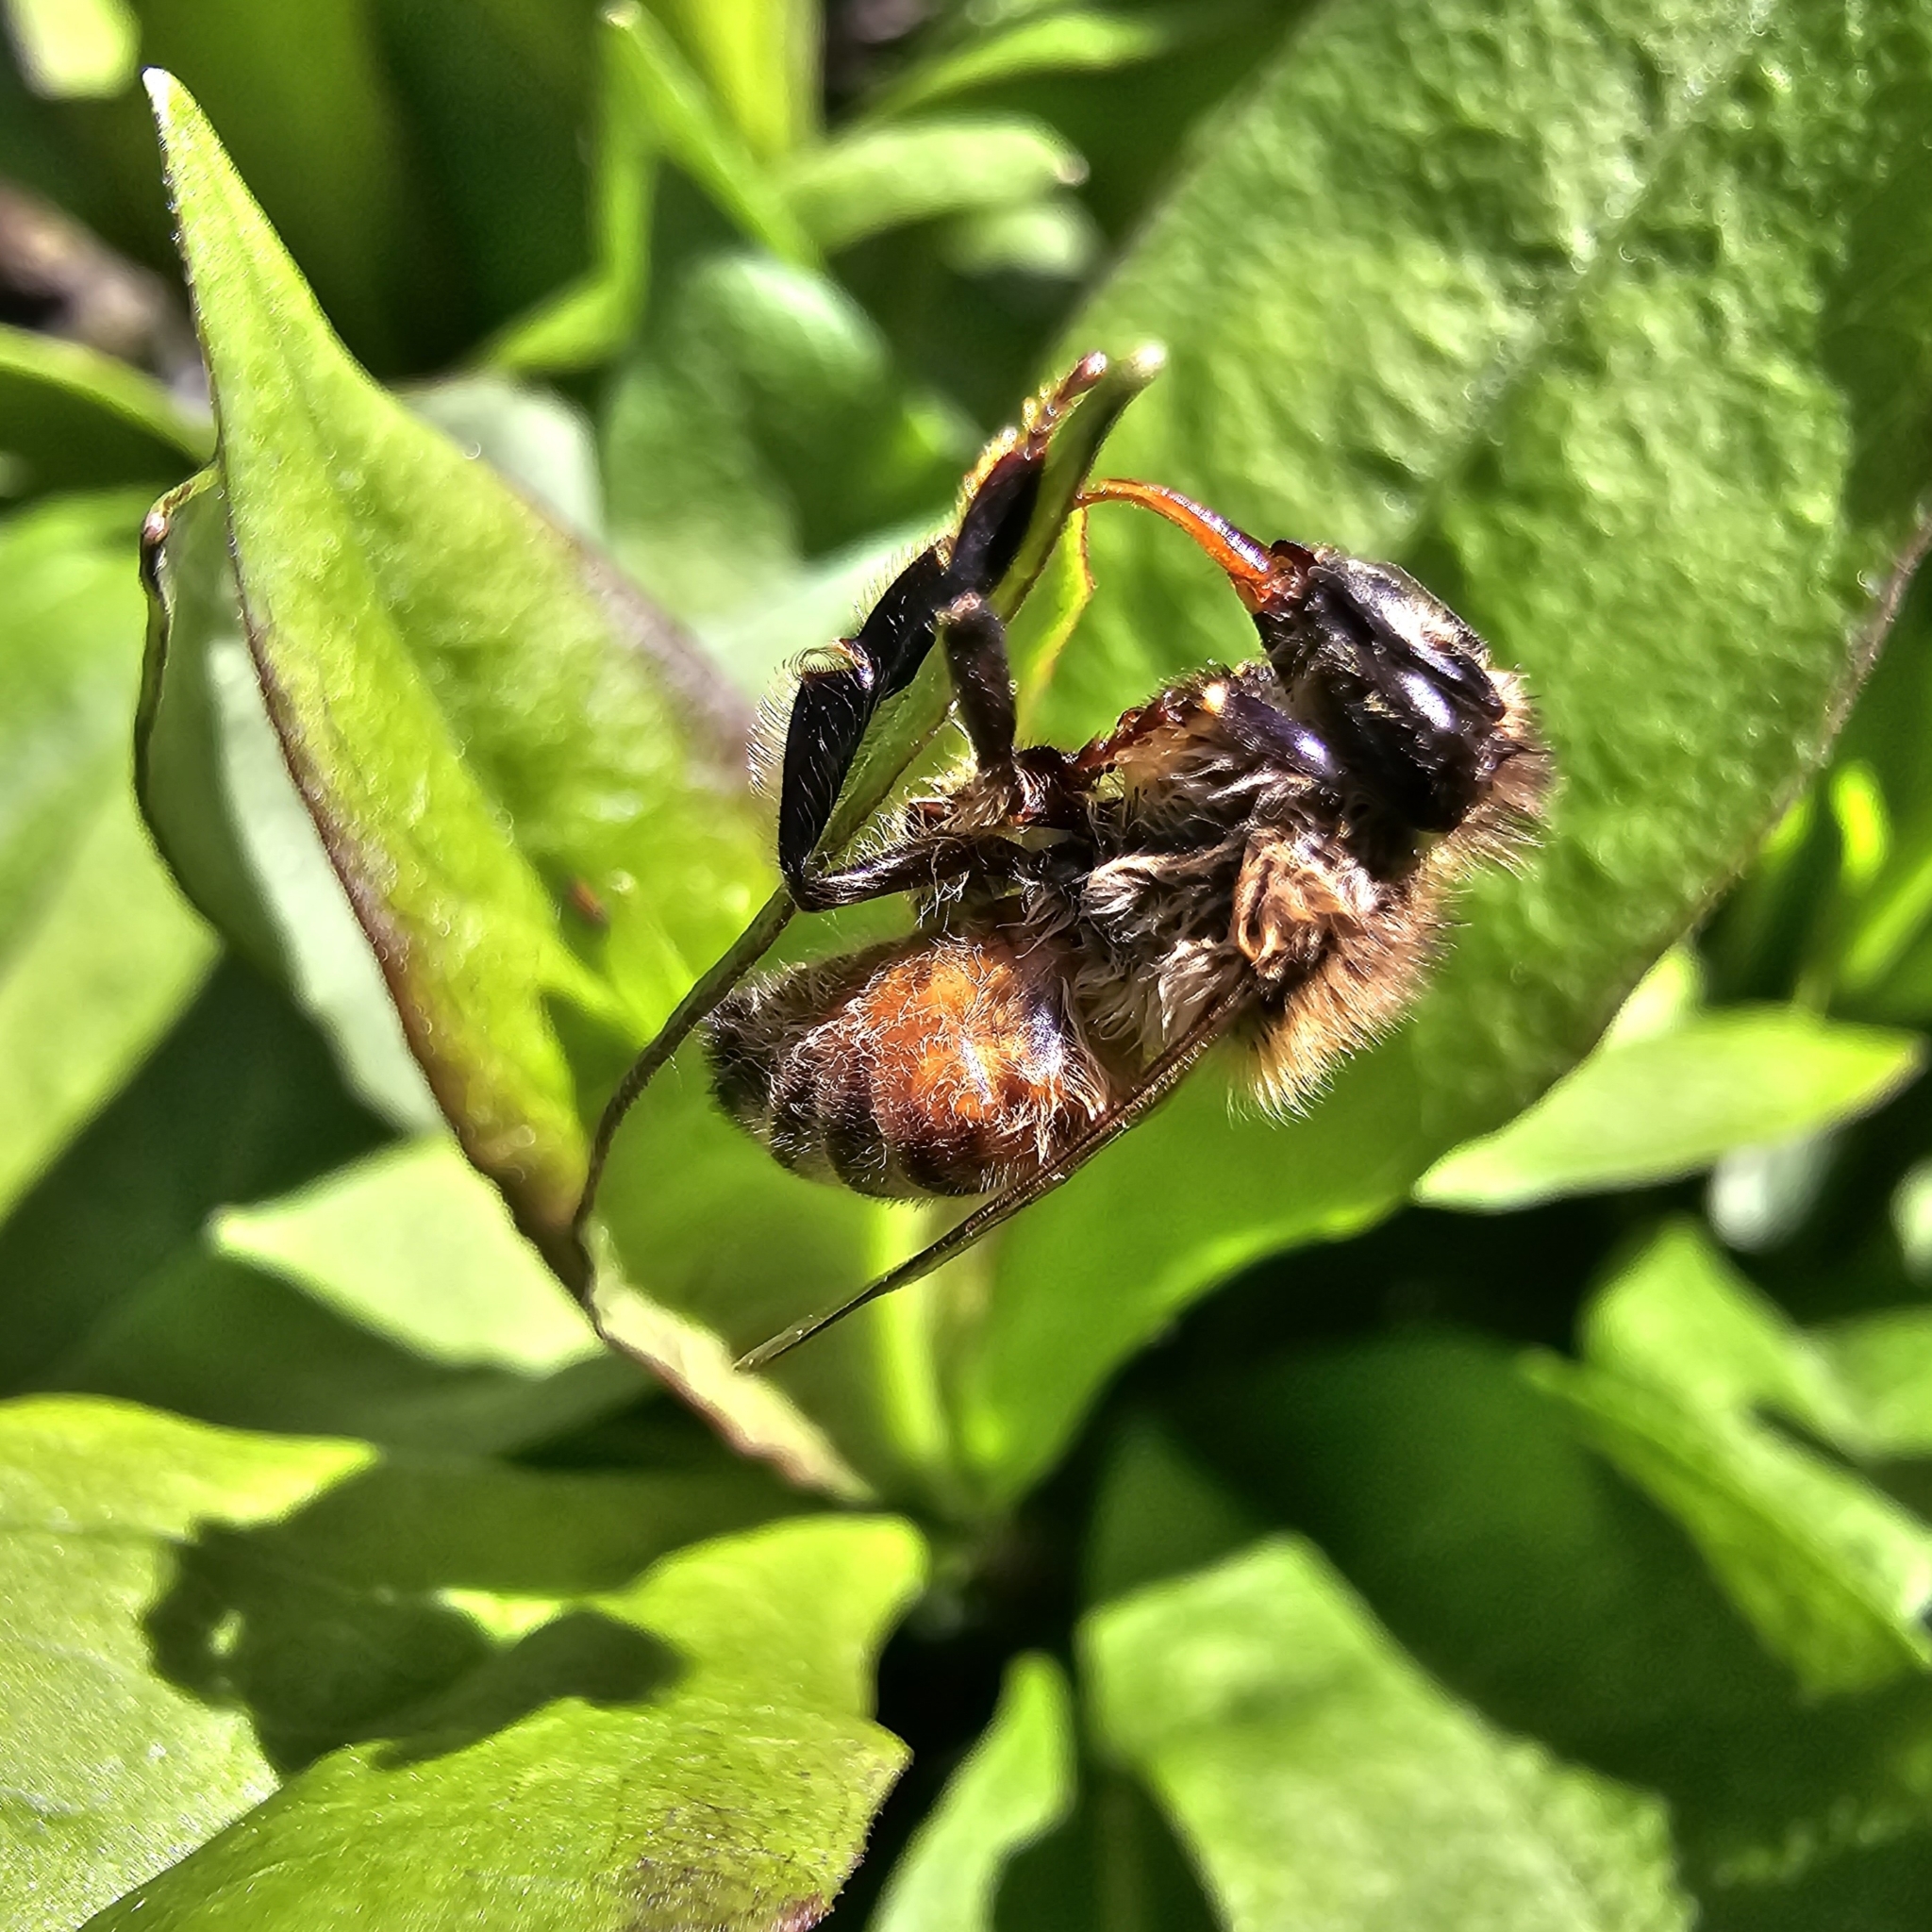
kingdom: Animalia
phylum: Arthropoda
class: Insecta
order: Hymenoptera
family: Apidae
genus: Apis
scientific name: Apis mellifera
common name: Honey bee
